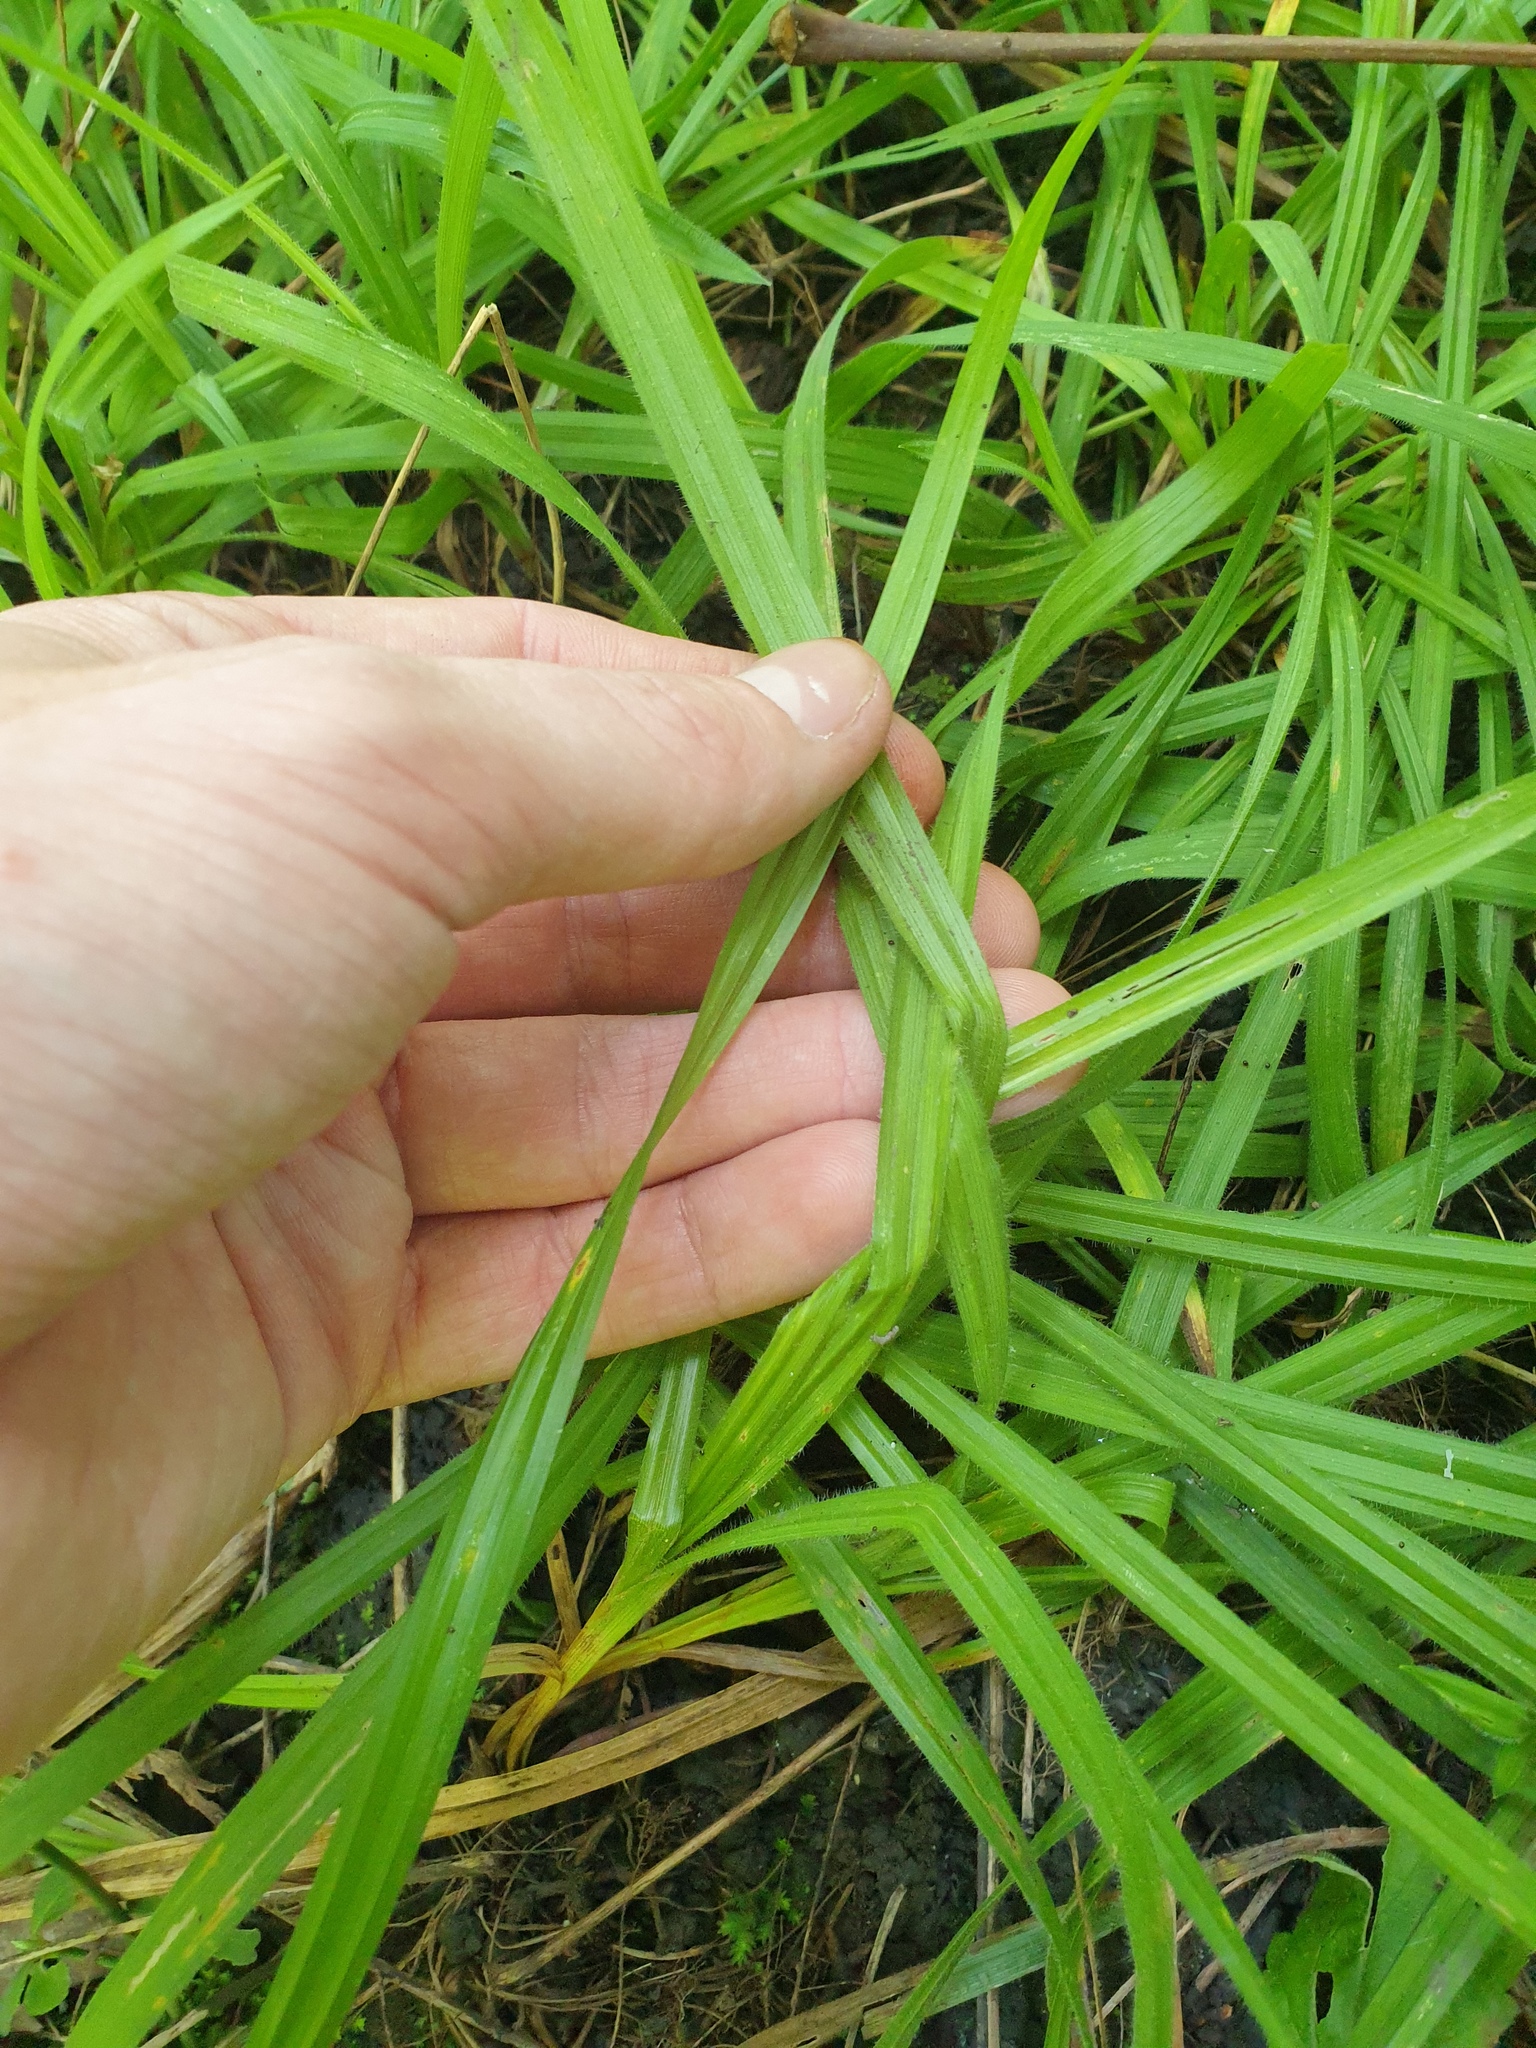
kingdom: Plantae
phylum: Tracheophyta
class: Liliopsida
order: Poales
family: Cyperaceae
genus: Carex
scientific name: Carex hirtifolia
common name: Hairy sedge
